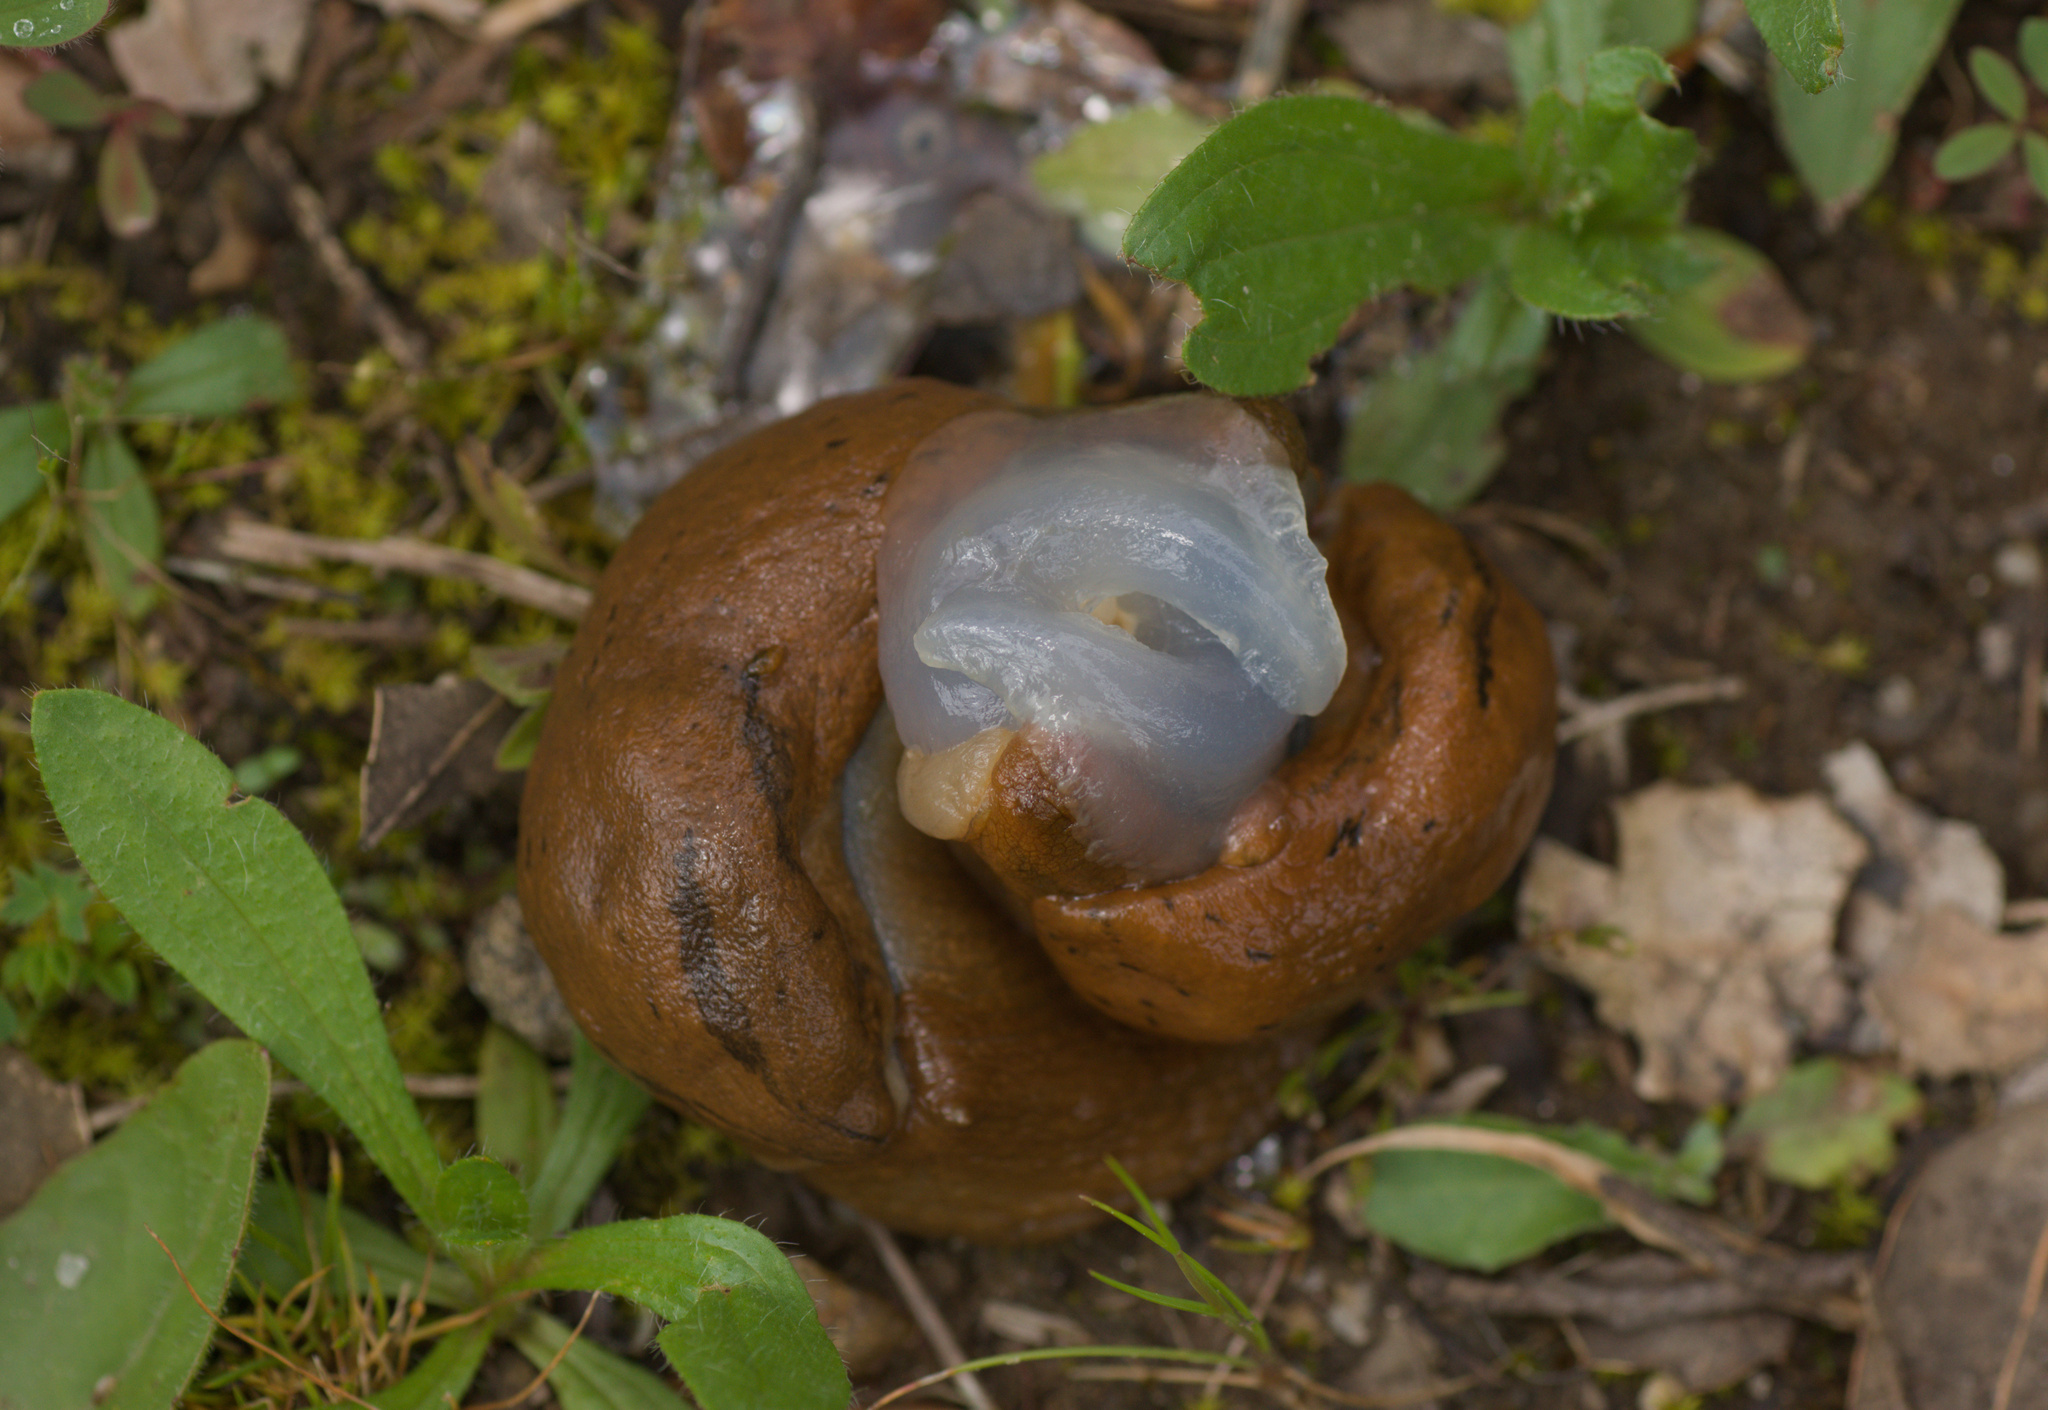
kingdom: Animalia
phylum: Mollusca
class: Gastropoda
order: Stylommatophora
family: Parmacellidae
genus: Drusia
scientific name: Drusia valenciennii
